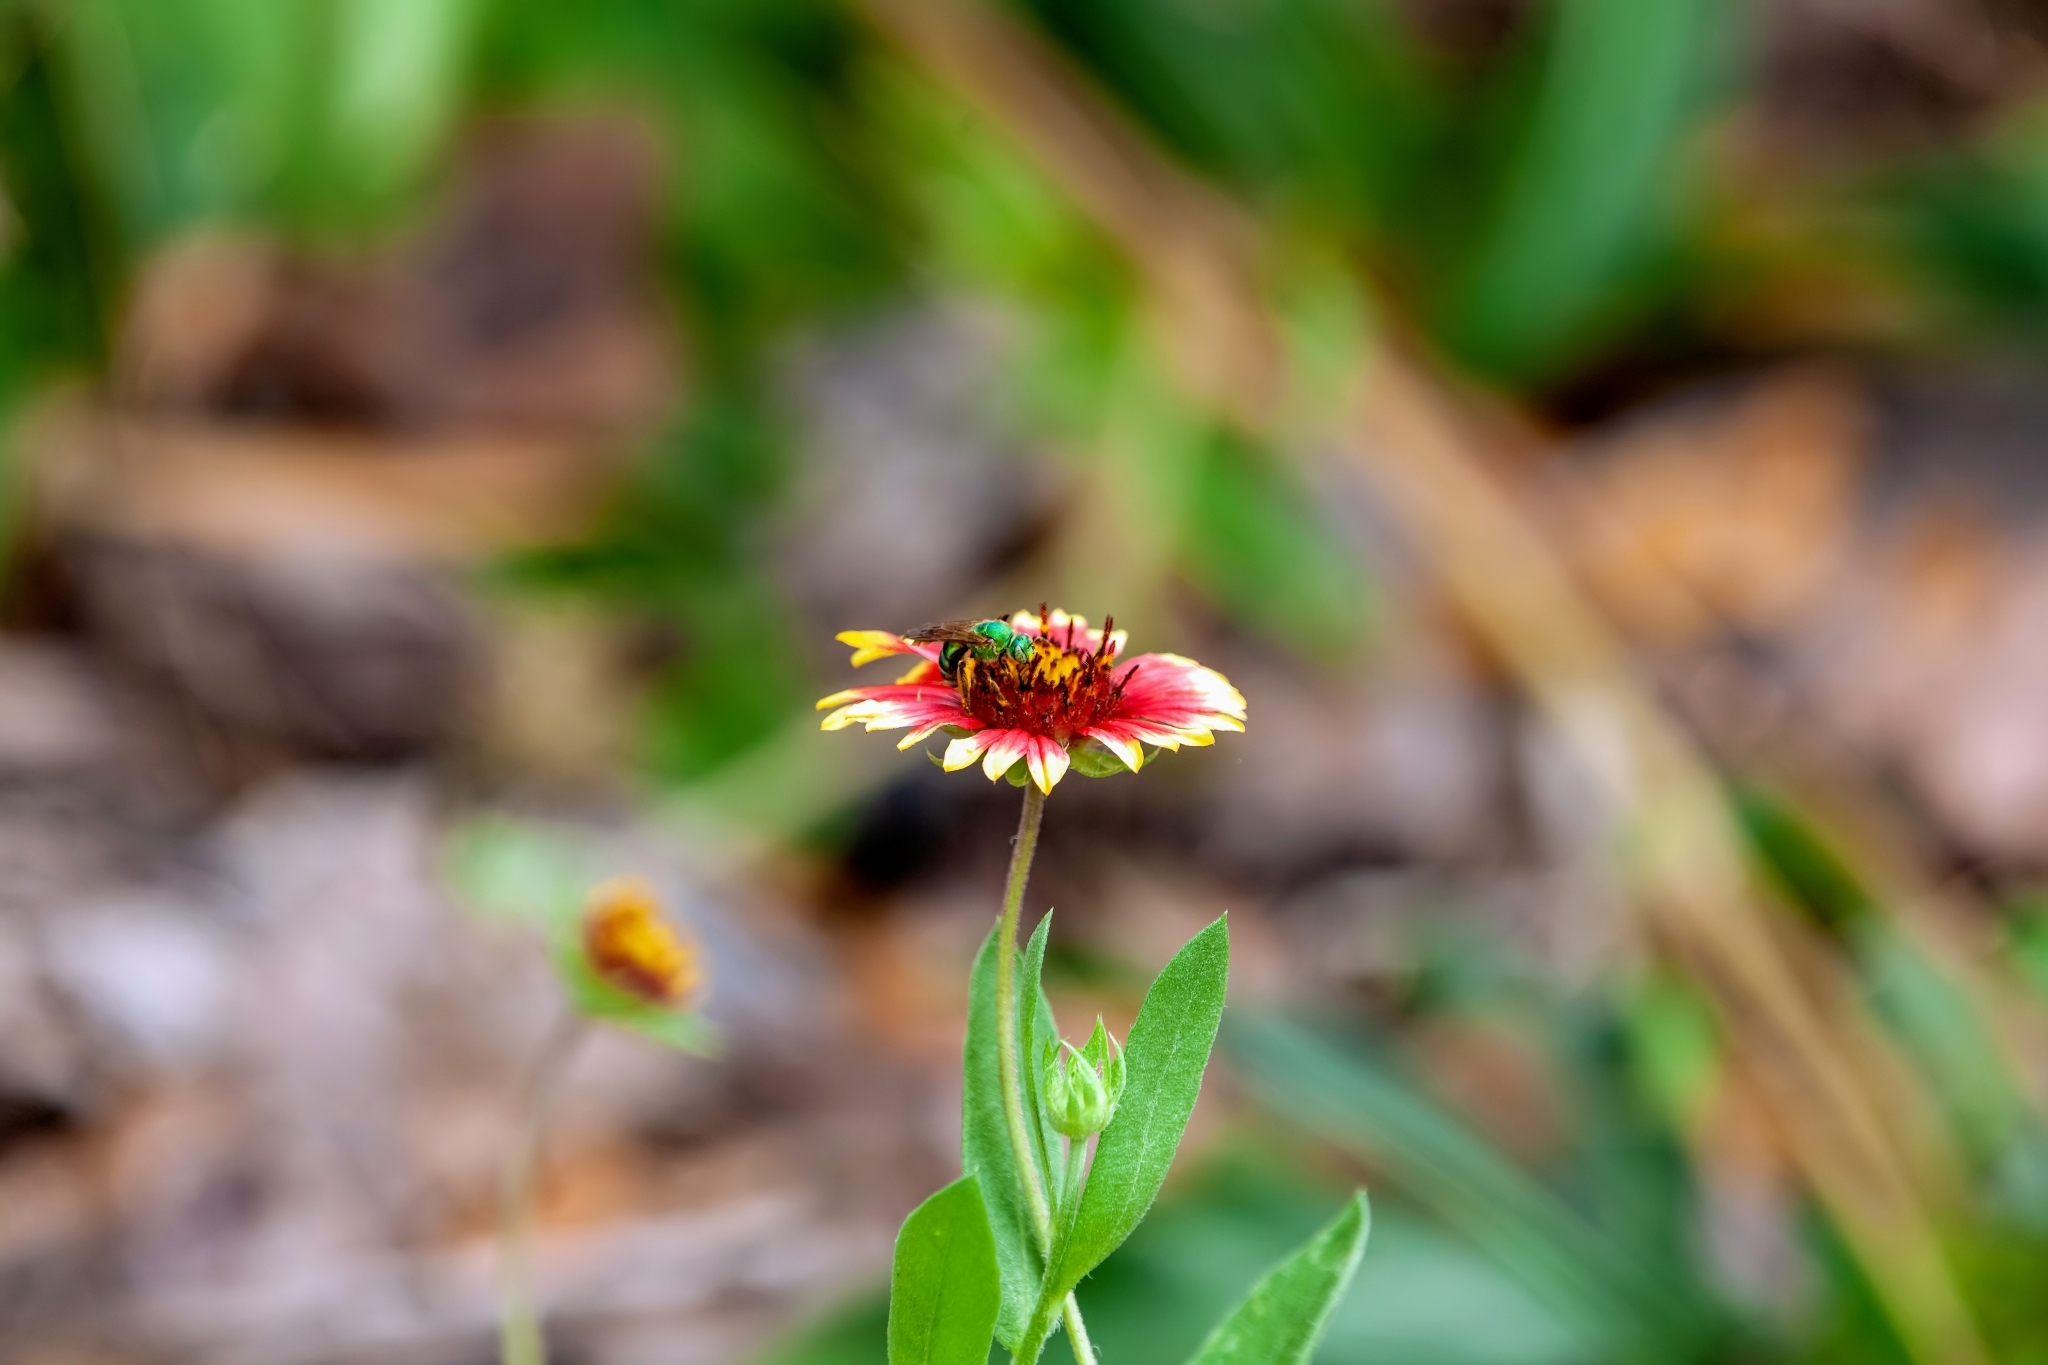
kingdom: Animalia
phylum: Arthropoda
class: Insecta
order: Hymenoptera
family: Halictidae
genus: Agapostemon
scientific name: Agapostemon splendens
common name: Brown-winged striped sweat bee
